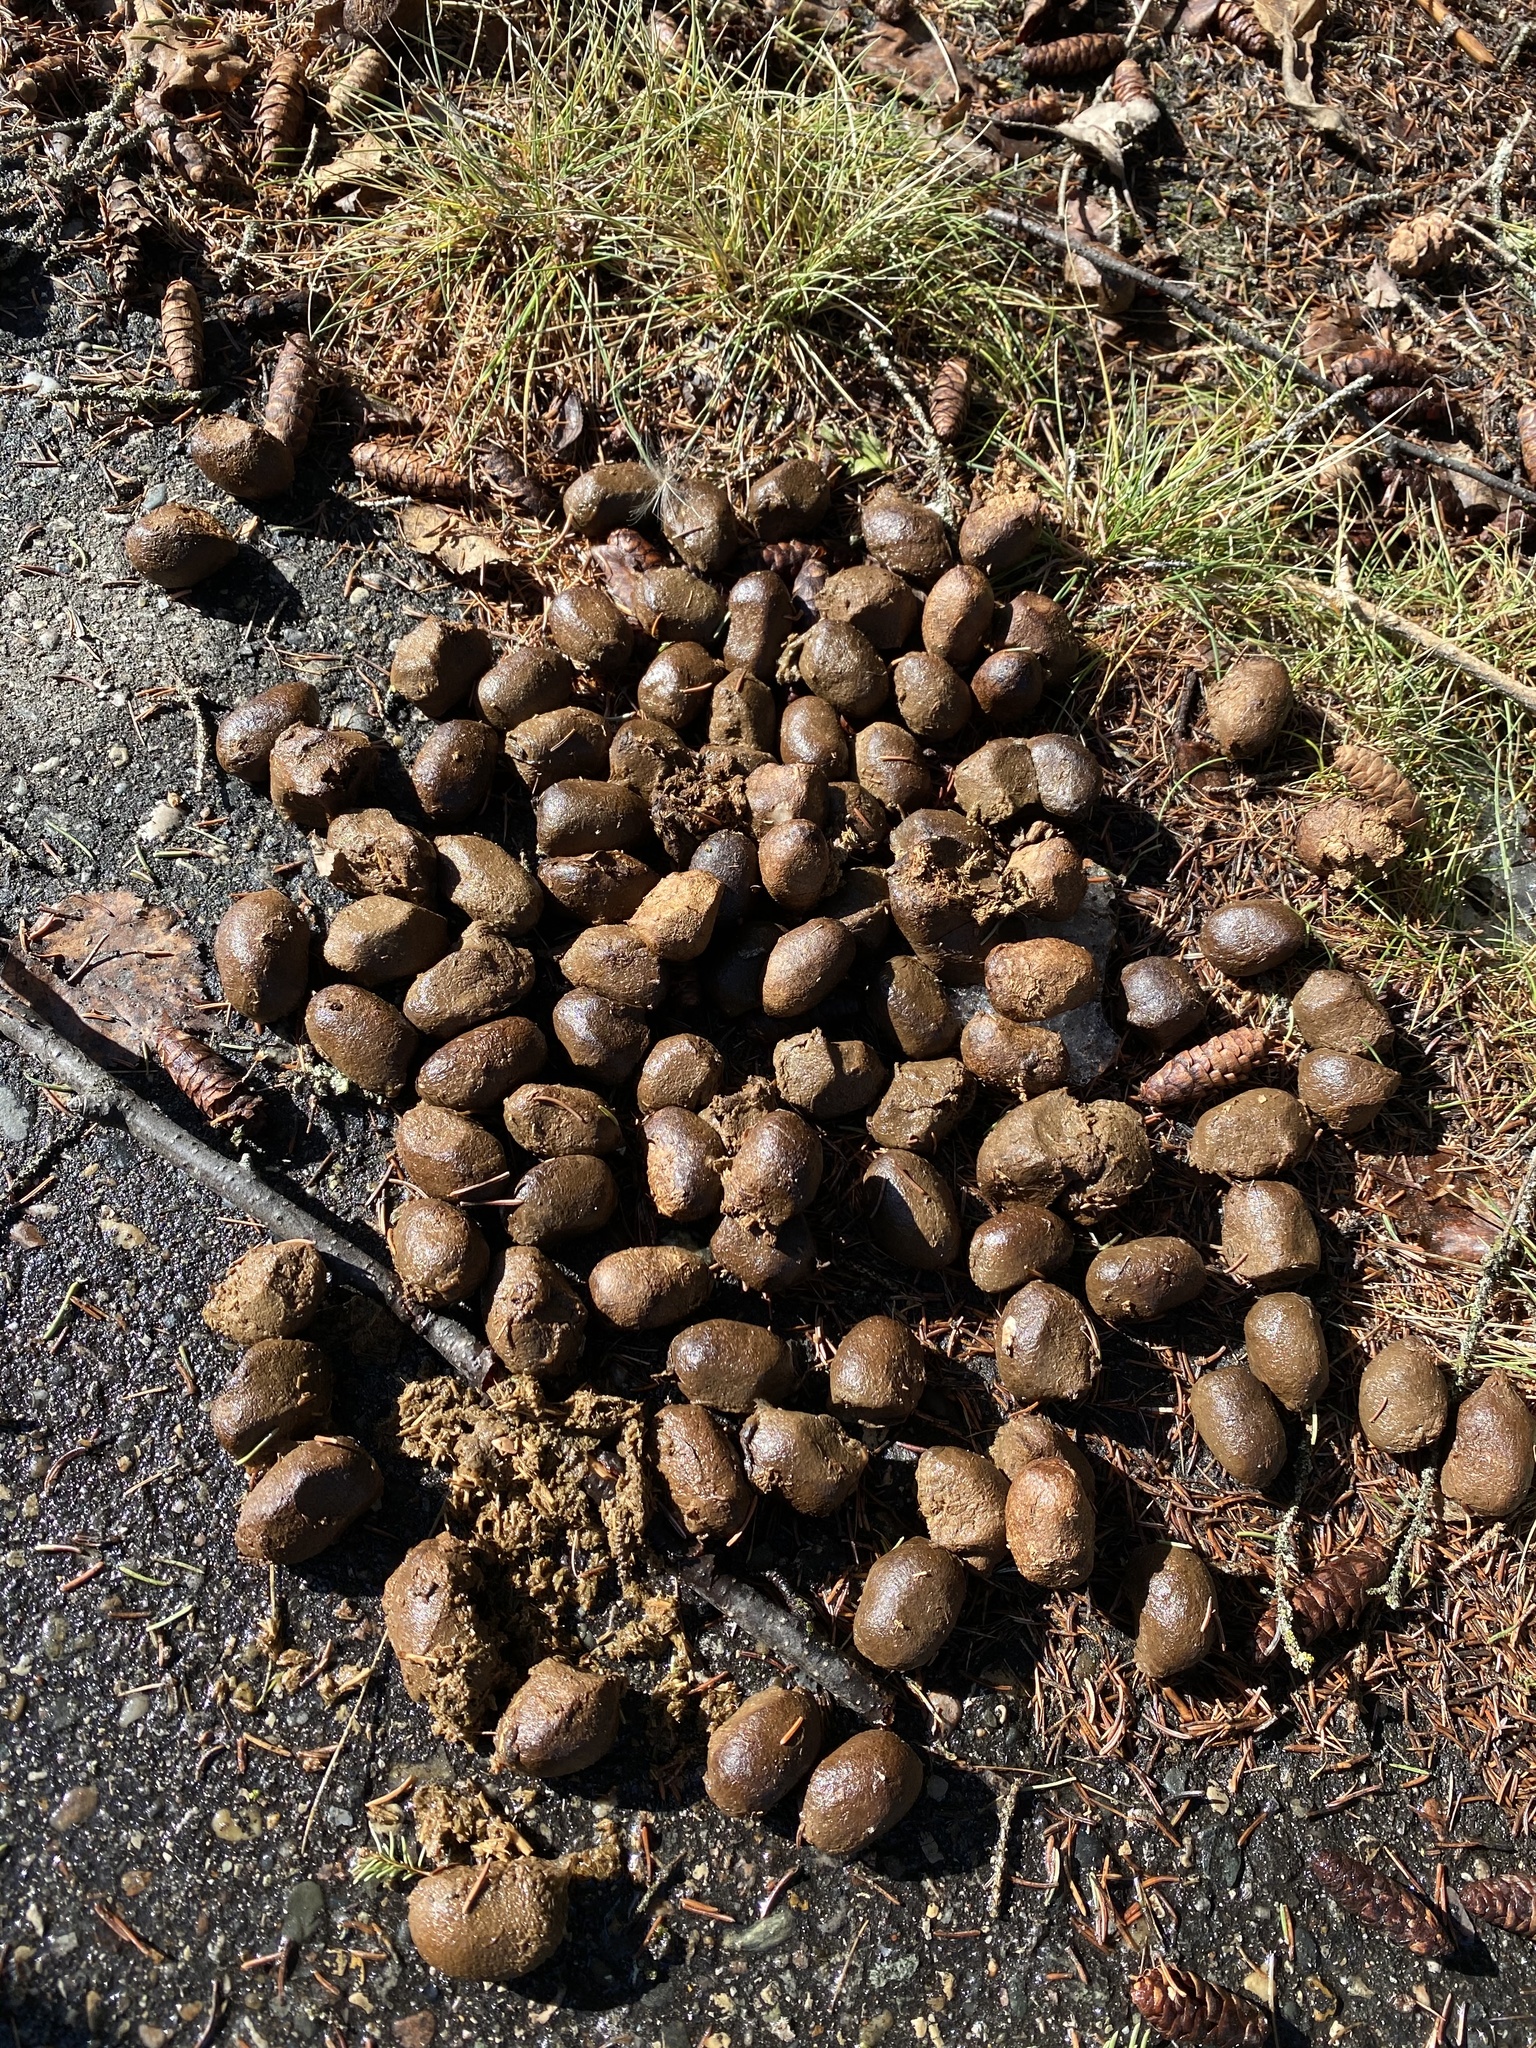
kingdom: Animalia
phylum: Chordata
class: Mammalia
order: Artiodactyla
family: Cervidae
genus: Alces
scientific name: Alces alces
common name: Moose
